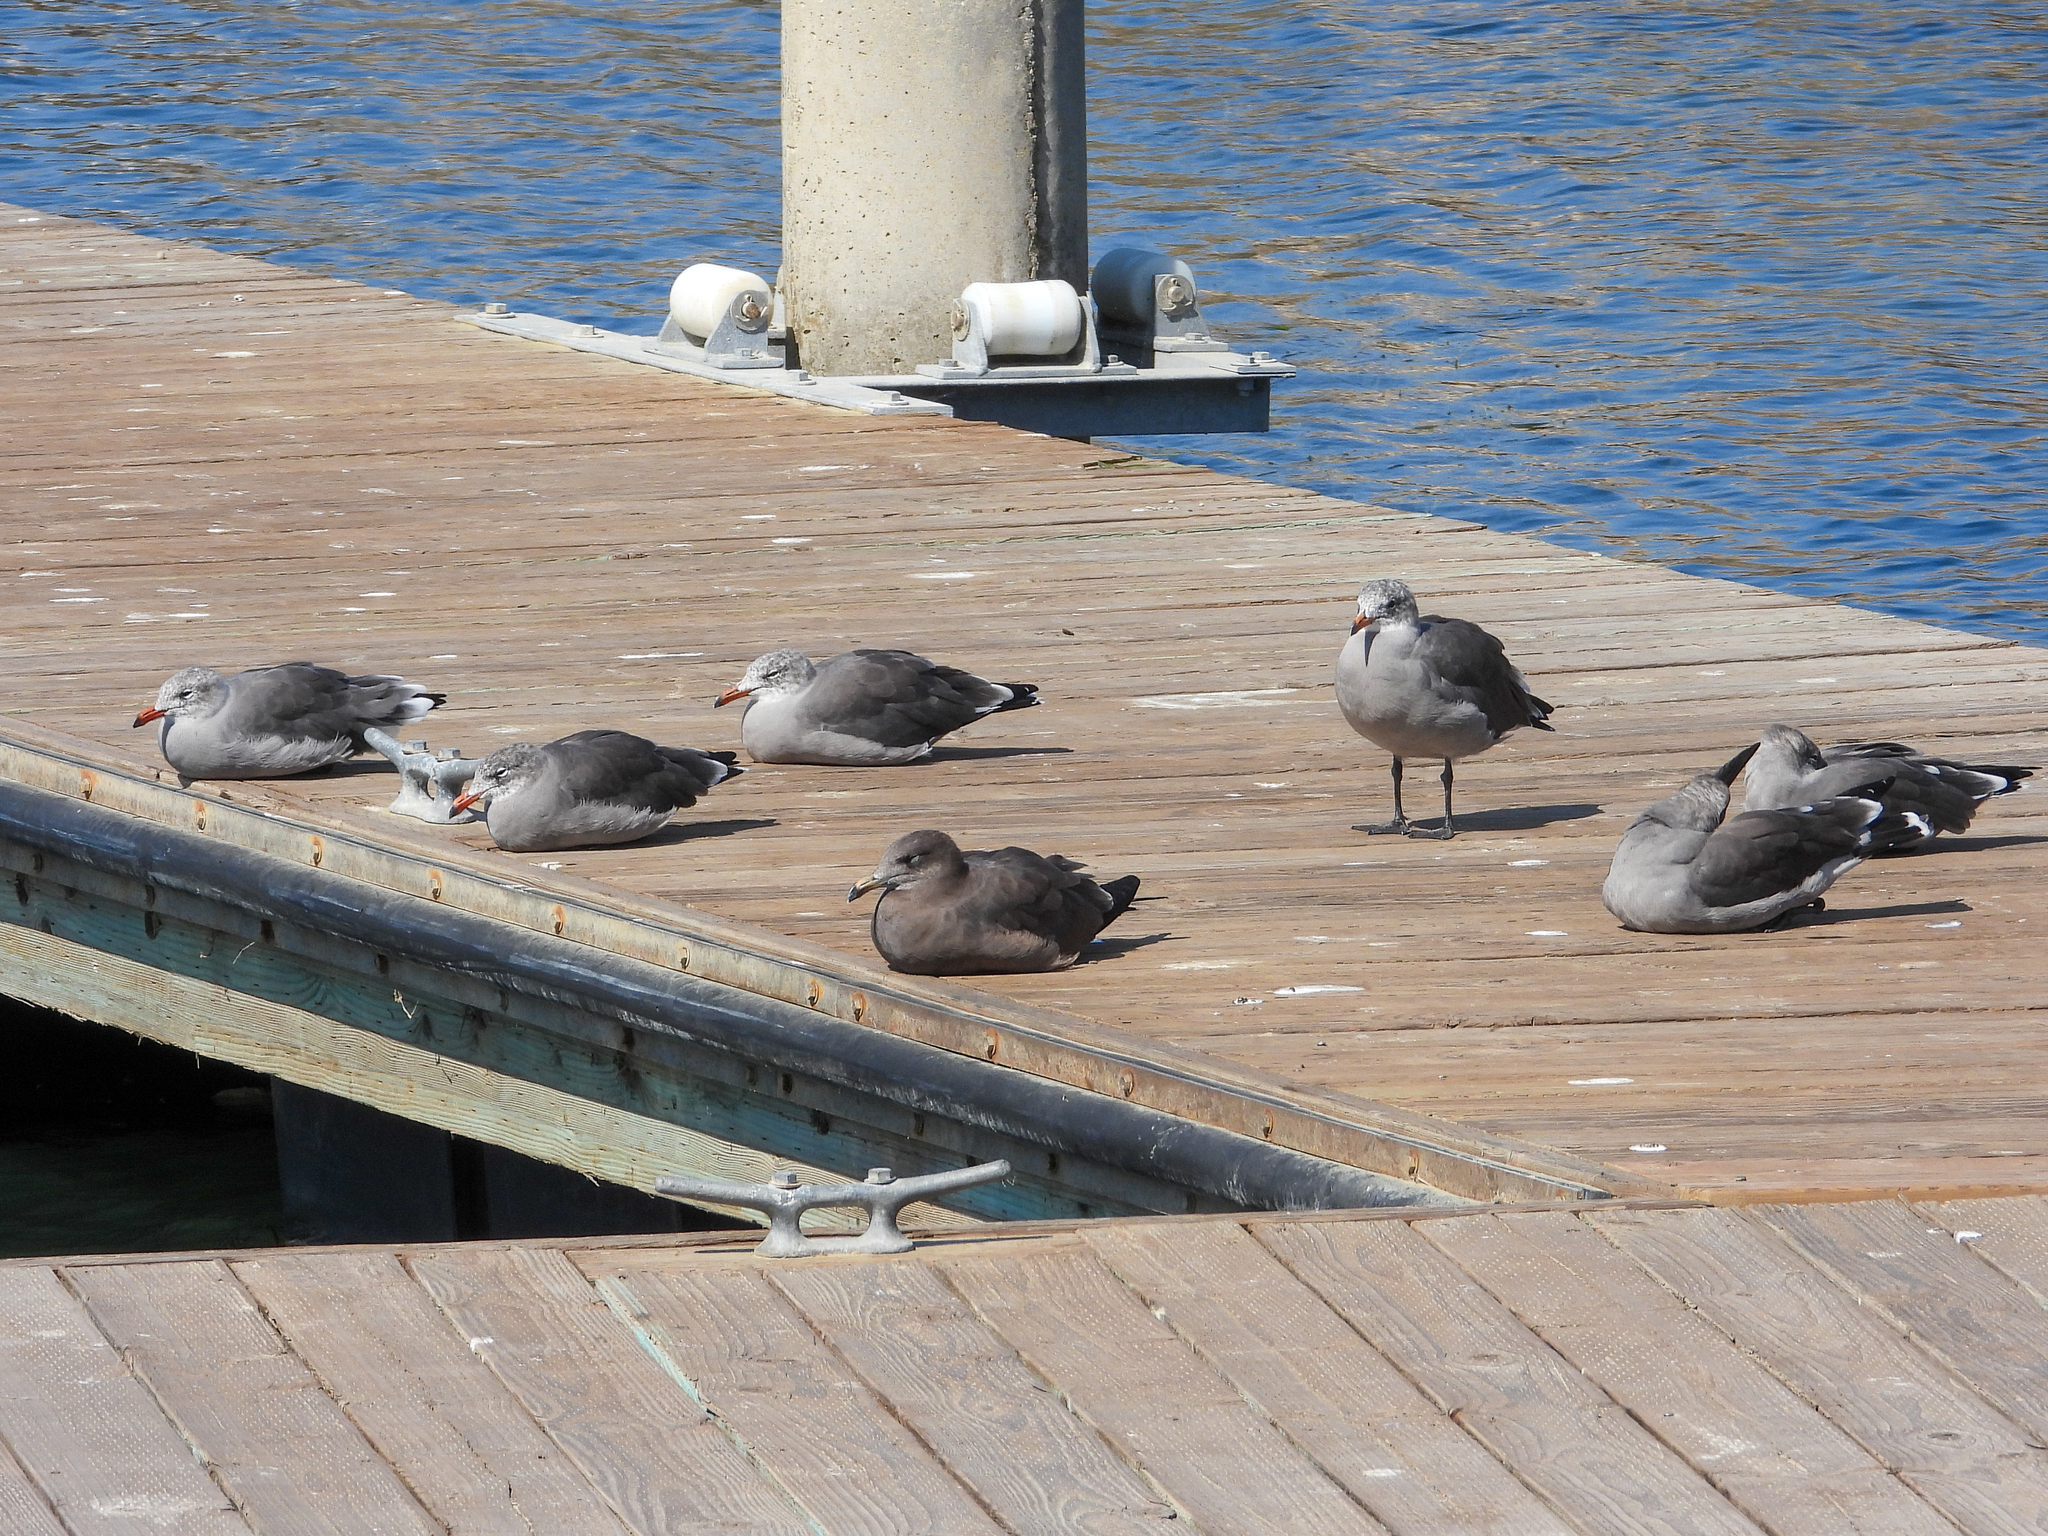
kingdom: Animalia
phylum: Chordata
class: Aves
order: Charadriiformes
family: Laridae
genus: Larus
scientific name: Larus heermanni
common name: Heermann's gull
